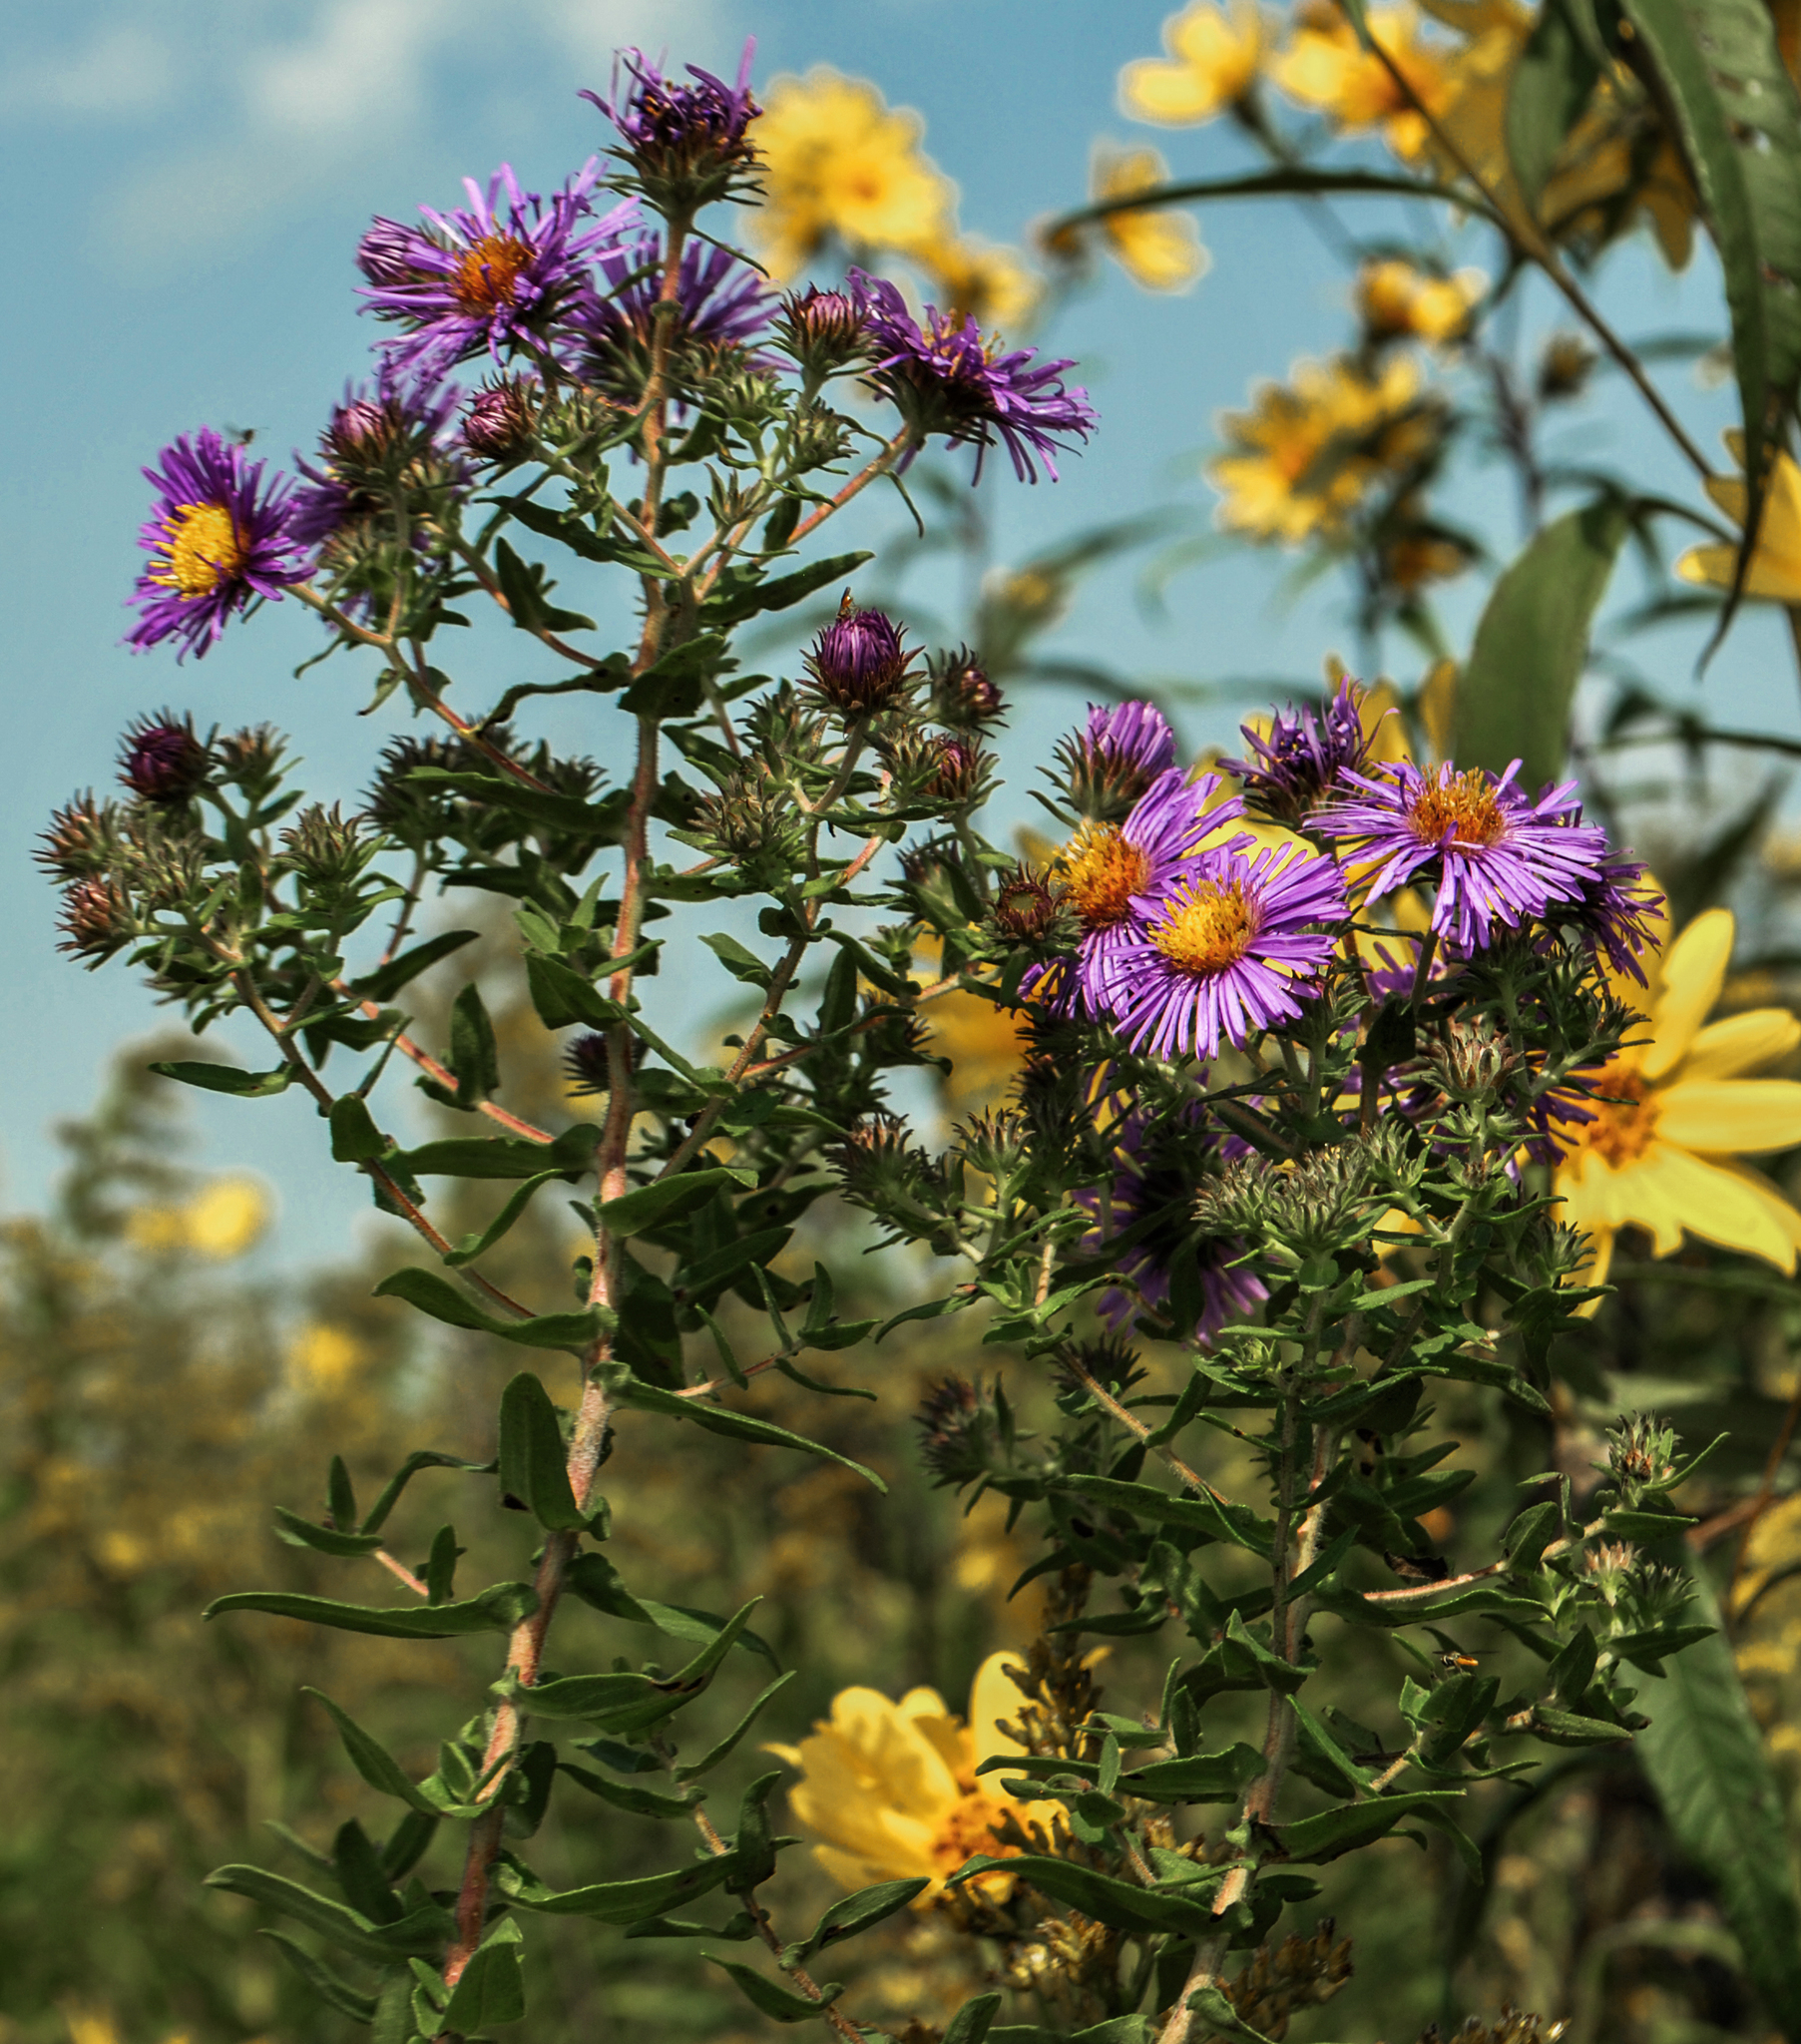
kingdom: Plantae
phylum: Tracheophyta
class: Magnoliopsida
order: Asterales
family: Asteraceae
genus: Symphyotrichum
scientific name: Symphyotrichum novae-angliae
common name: Michaelmas daisy
